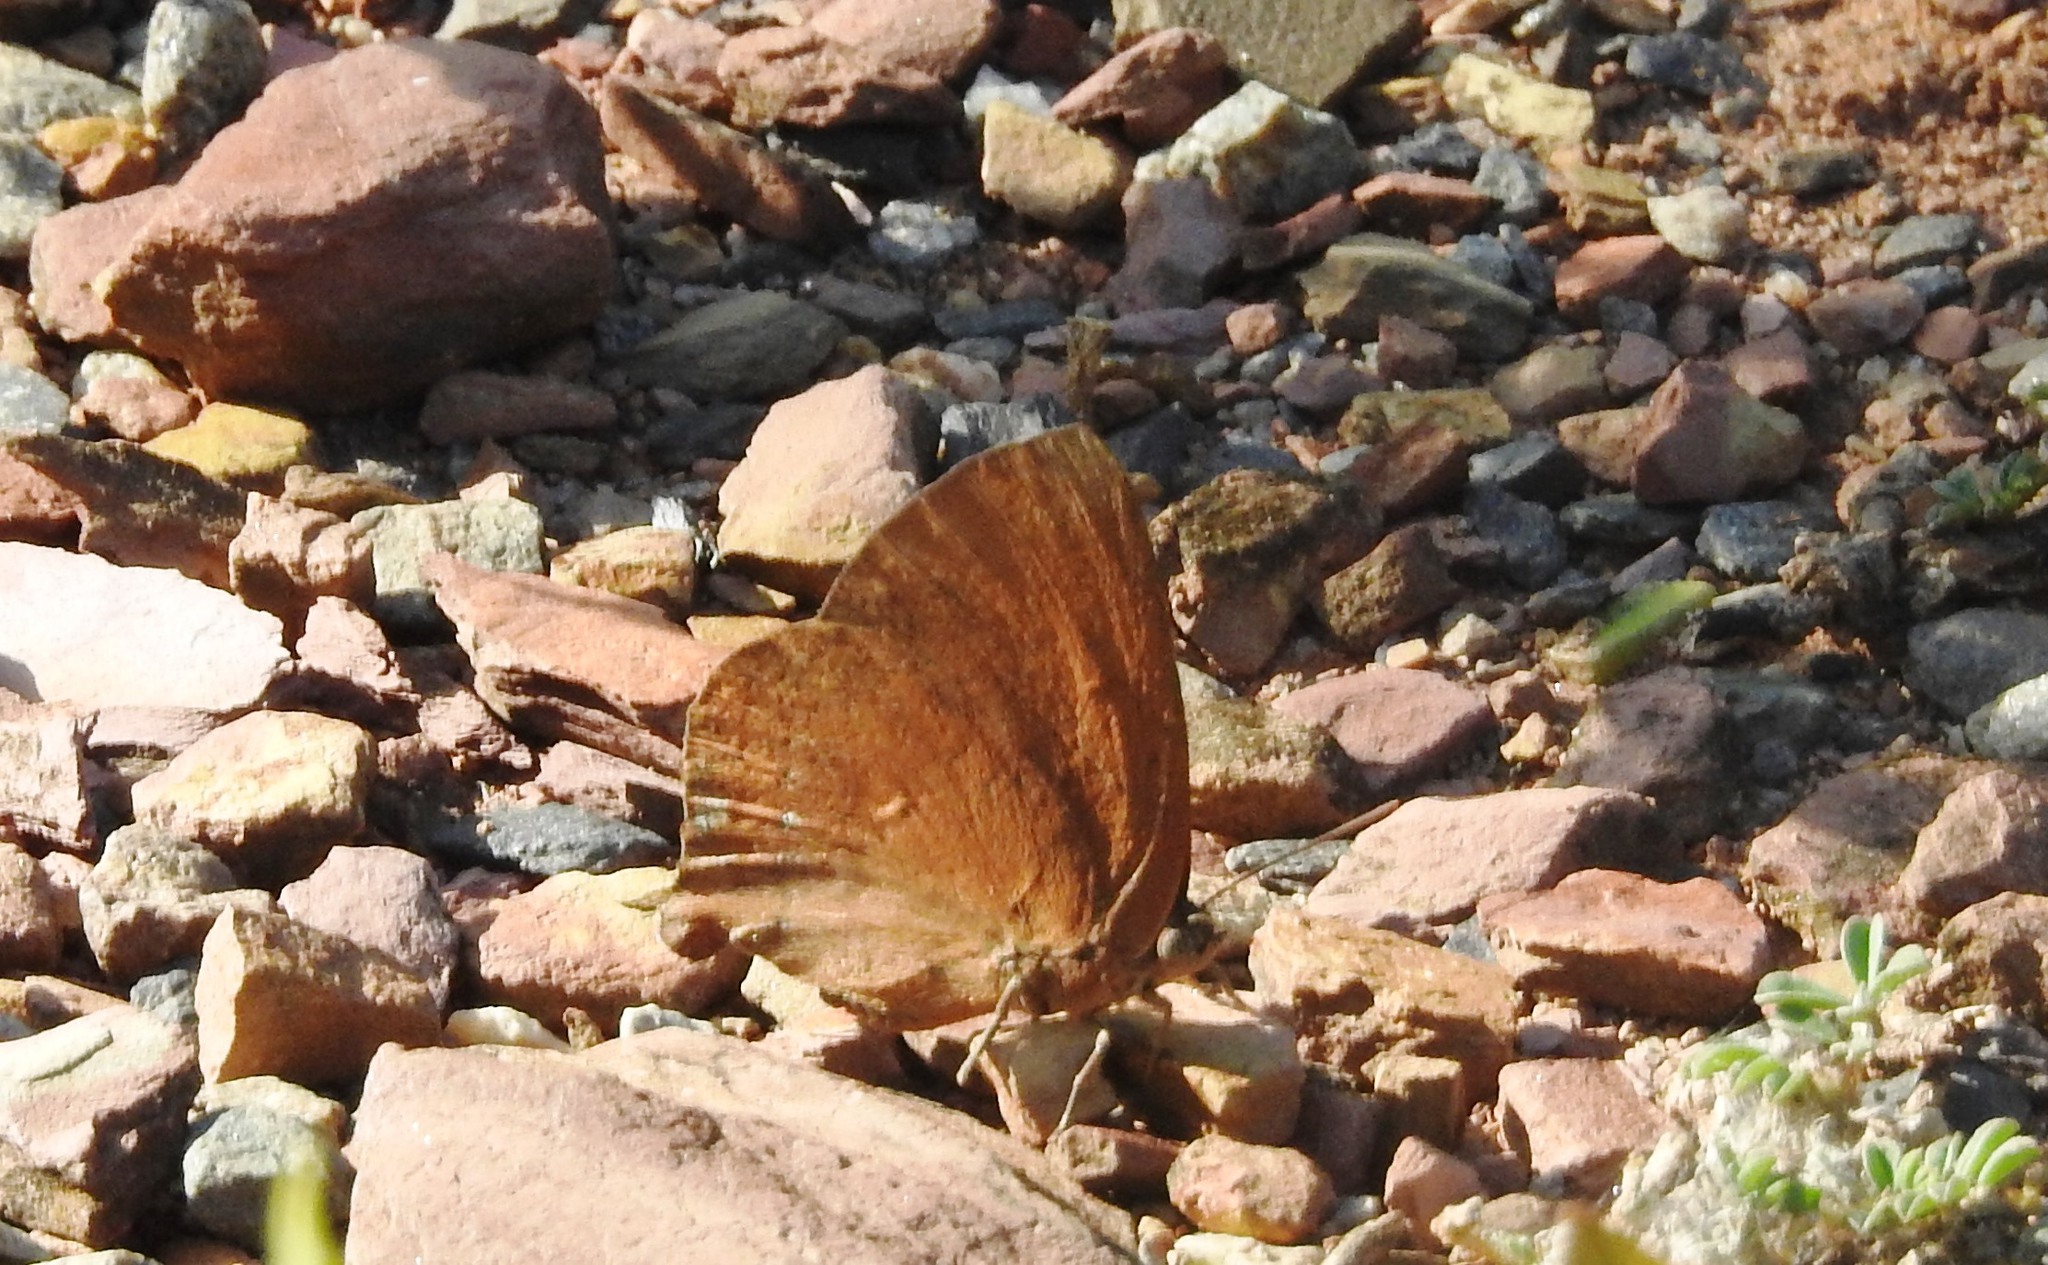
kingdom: Animalia
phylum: Arthropoda
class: Insecta
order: Lepidoptera
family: Lycaenidae
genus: Amblypodia
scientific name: Amblypodia anita
